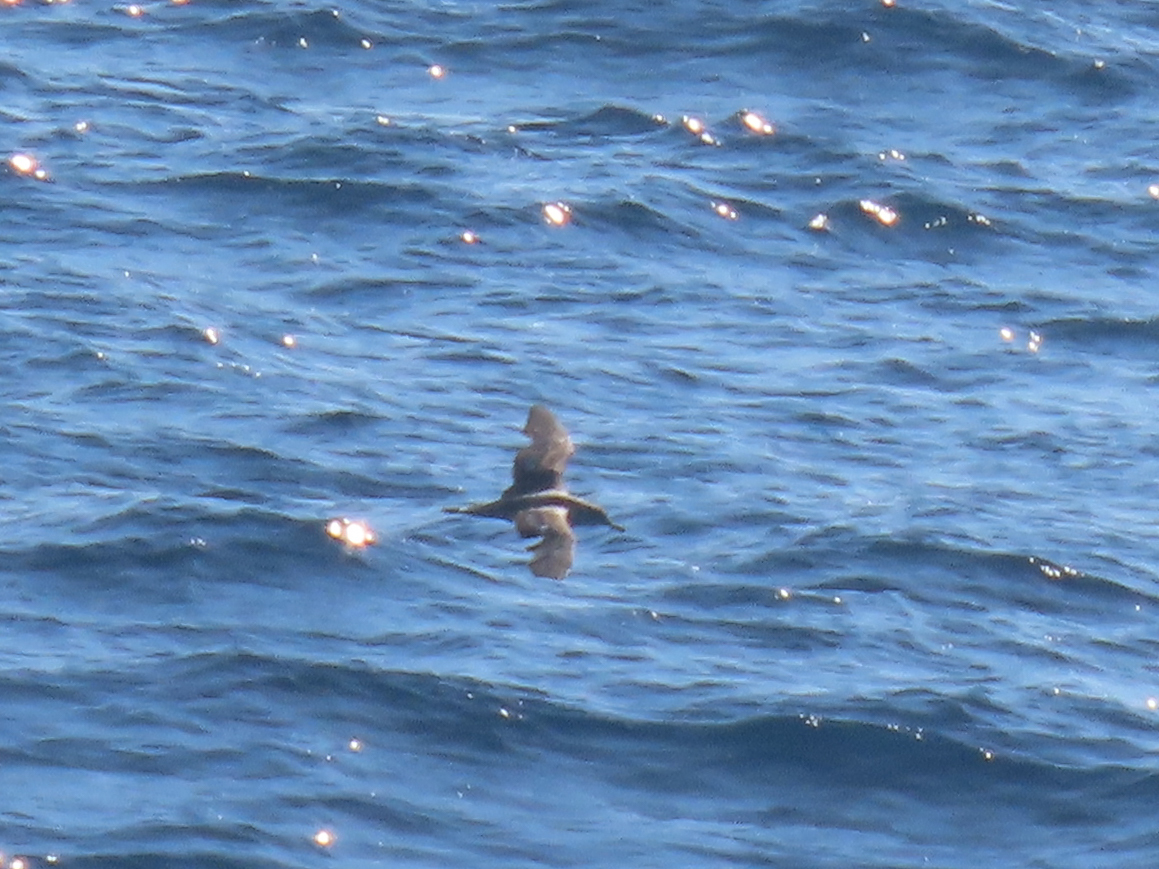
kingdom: Animalia
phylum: Chordata
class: Aves
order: Procellariiformes
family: Procellariidae
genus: Calonectris
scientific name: Calonectris diomedea
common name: Cory's shearwater
